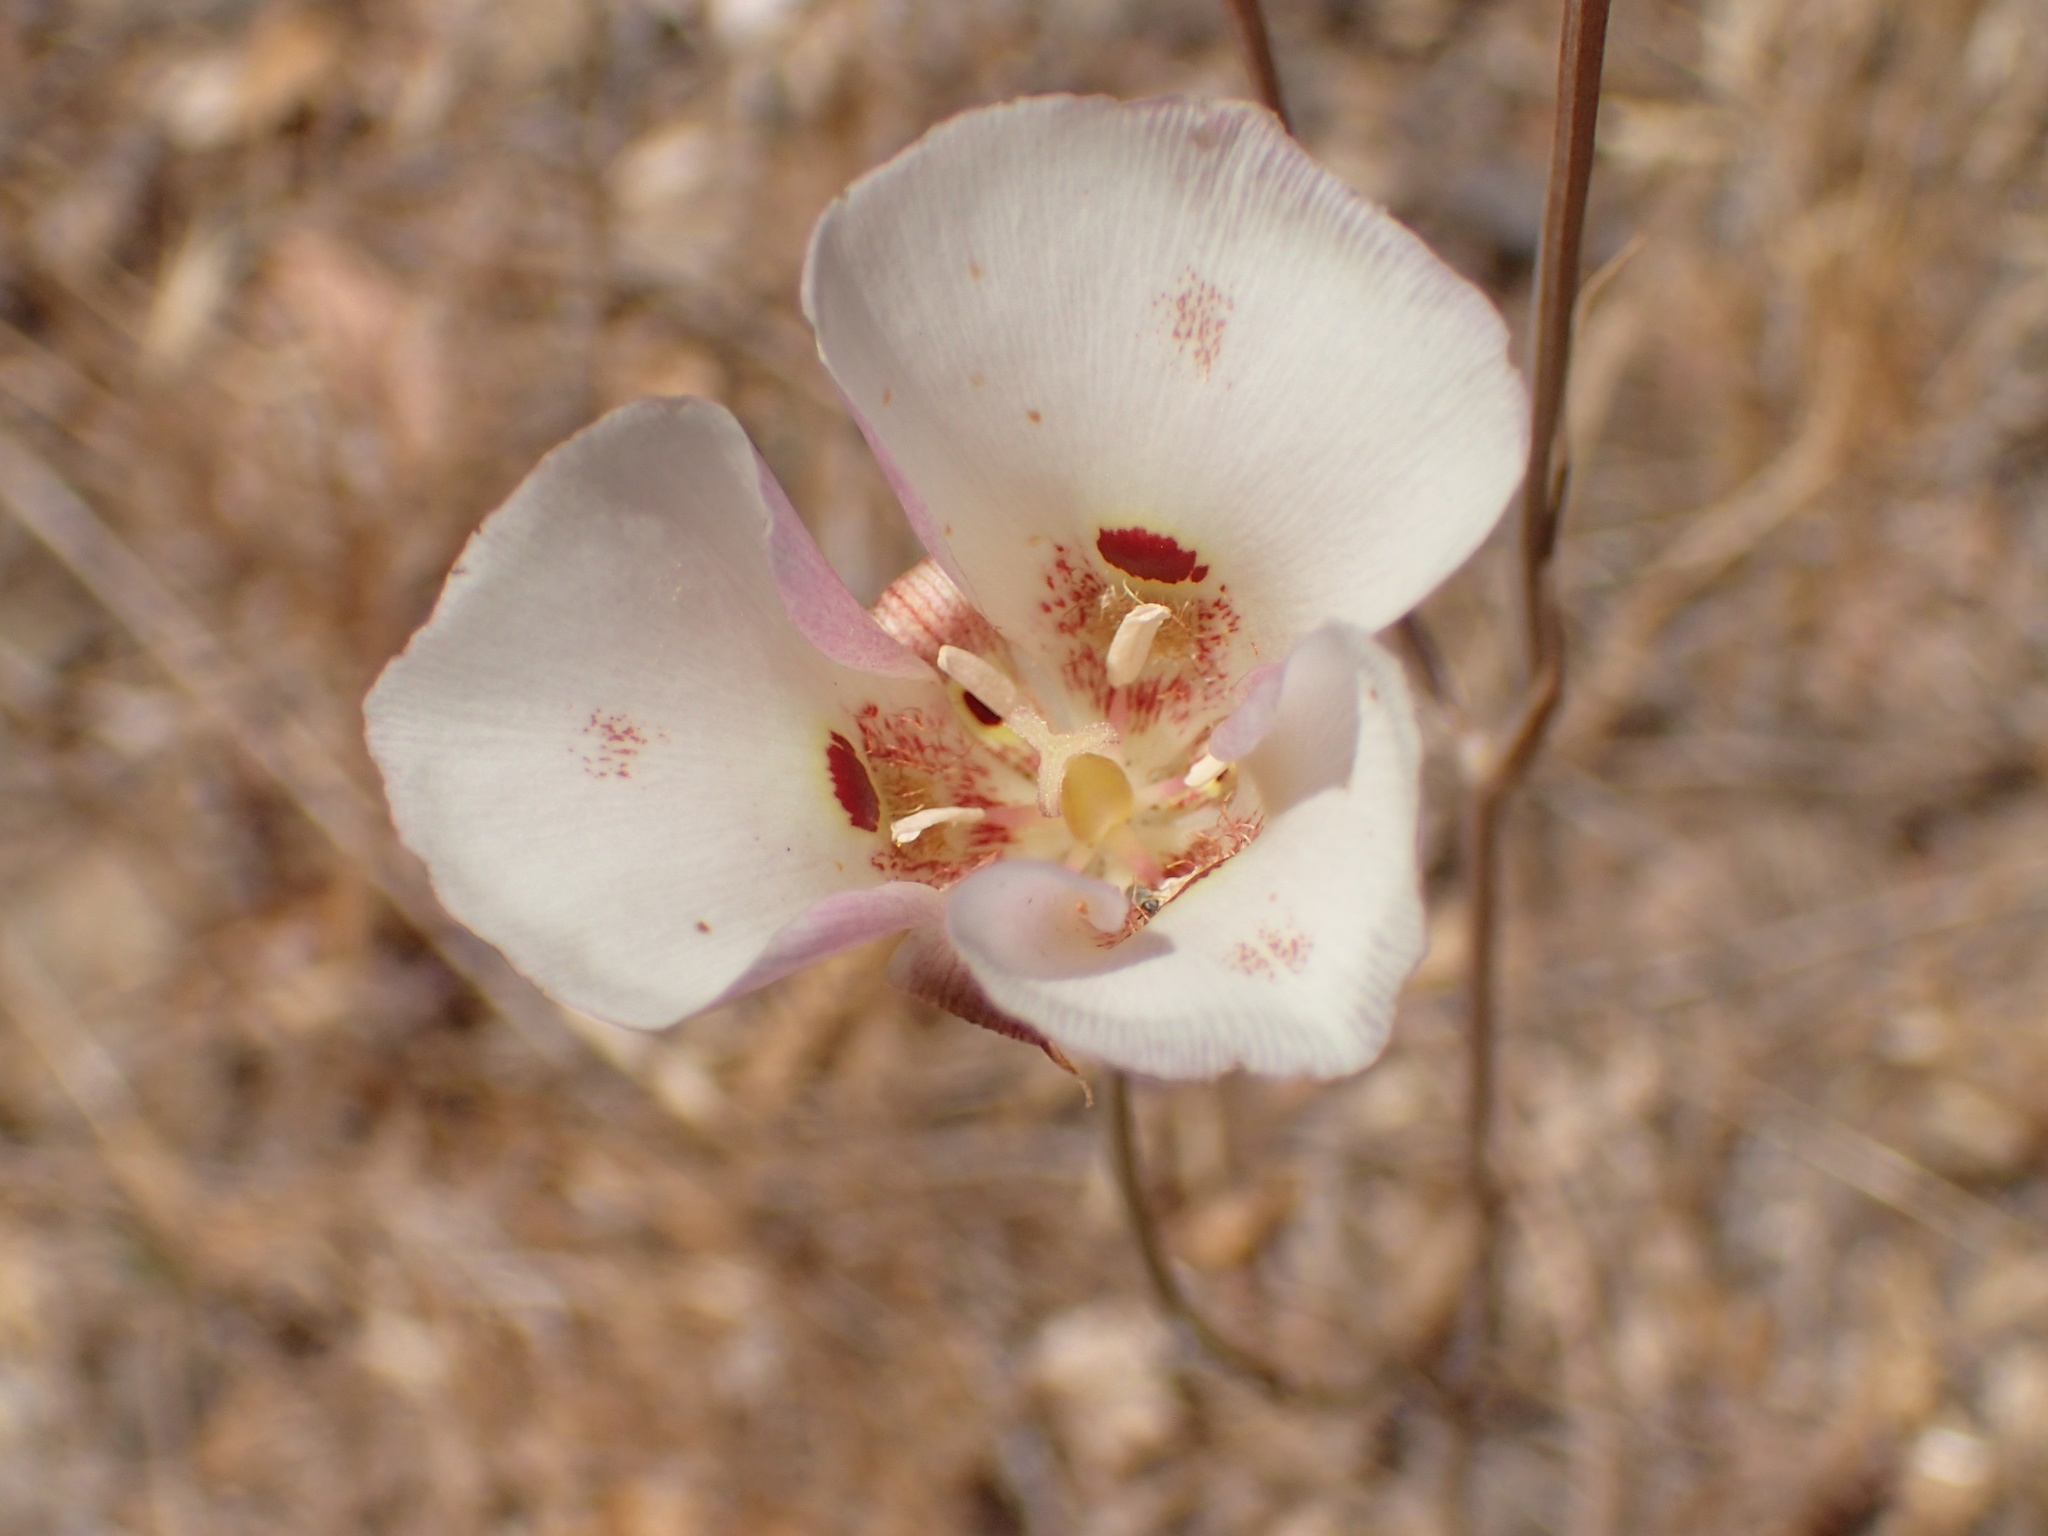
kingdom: Plantae
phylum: Tracheophyta
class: Liliopsida
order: Liliales
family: Liliaceae
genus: Calochortus
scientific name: Calochortus venustus
